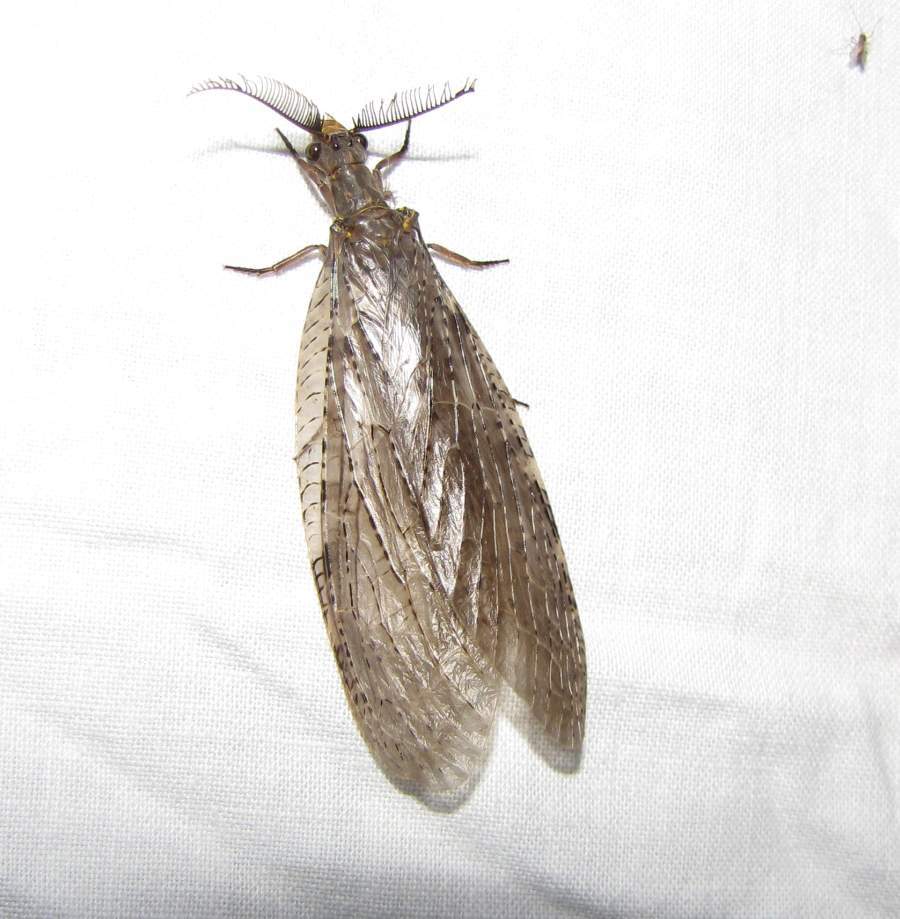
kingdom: Animalia
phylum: Arthropoda
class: Insecta
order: Megaloptera
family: Corydalidae
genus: Chauliodes
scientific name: Chauliodes pectinicornis
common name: Summer fishfly
